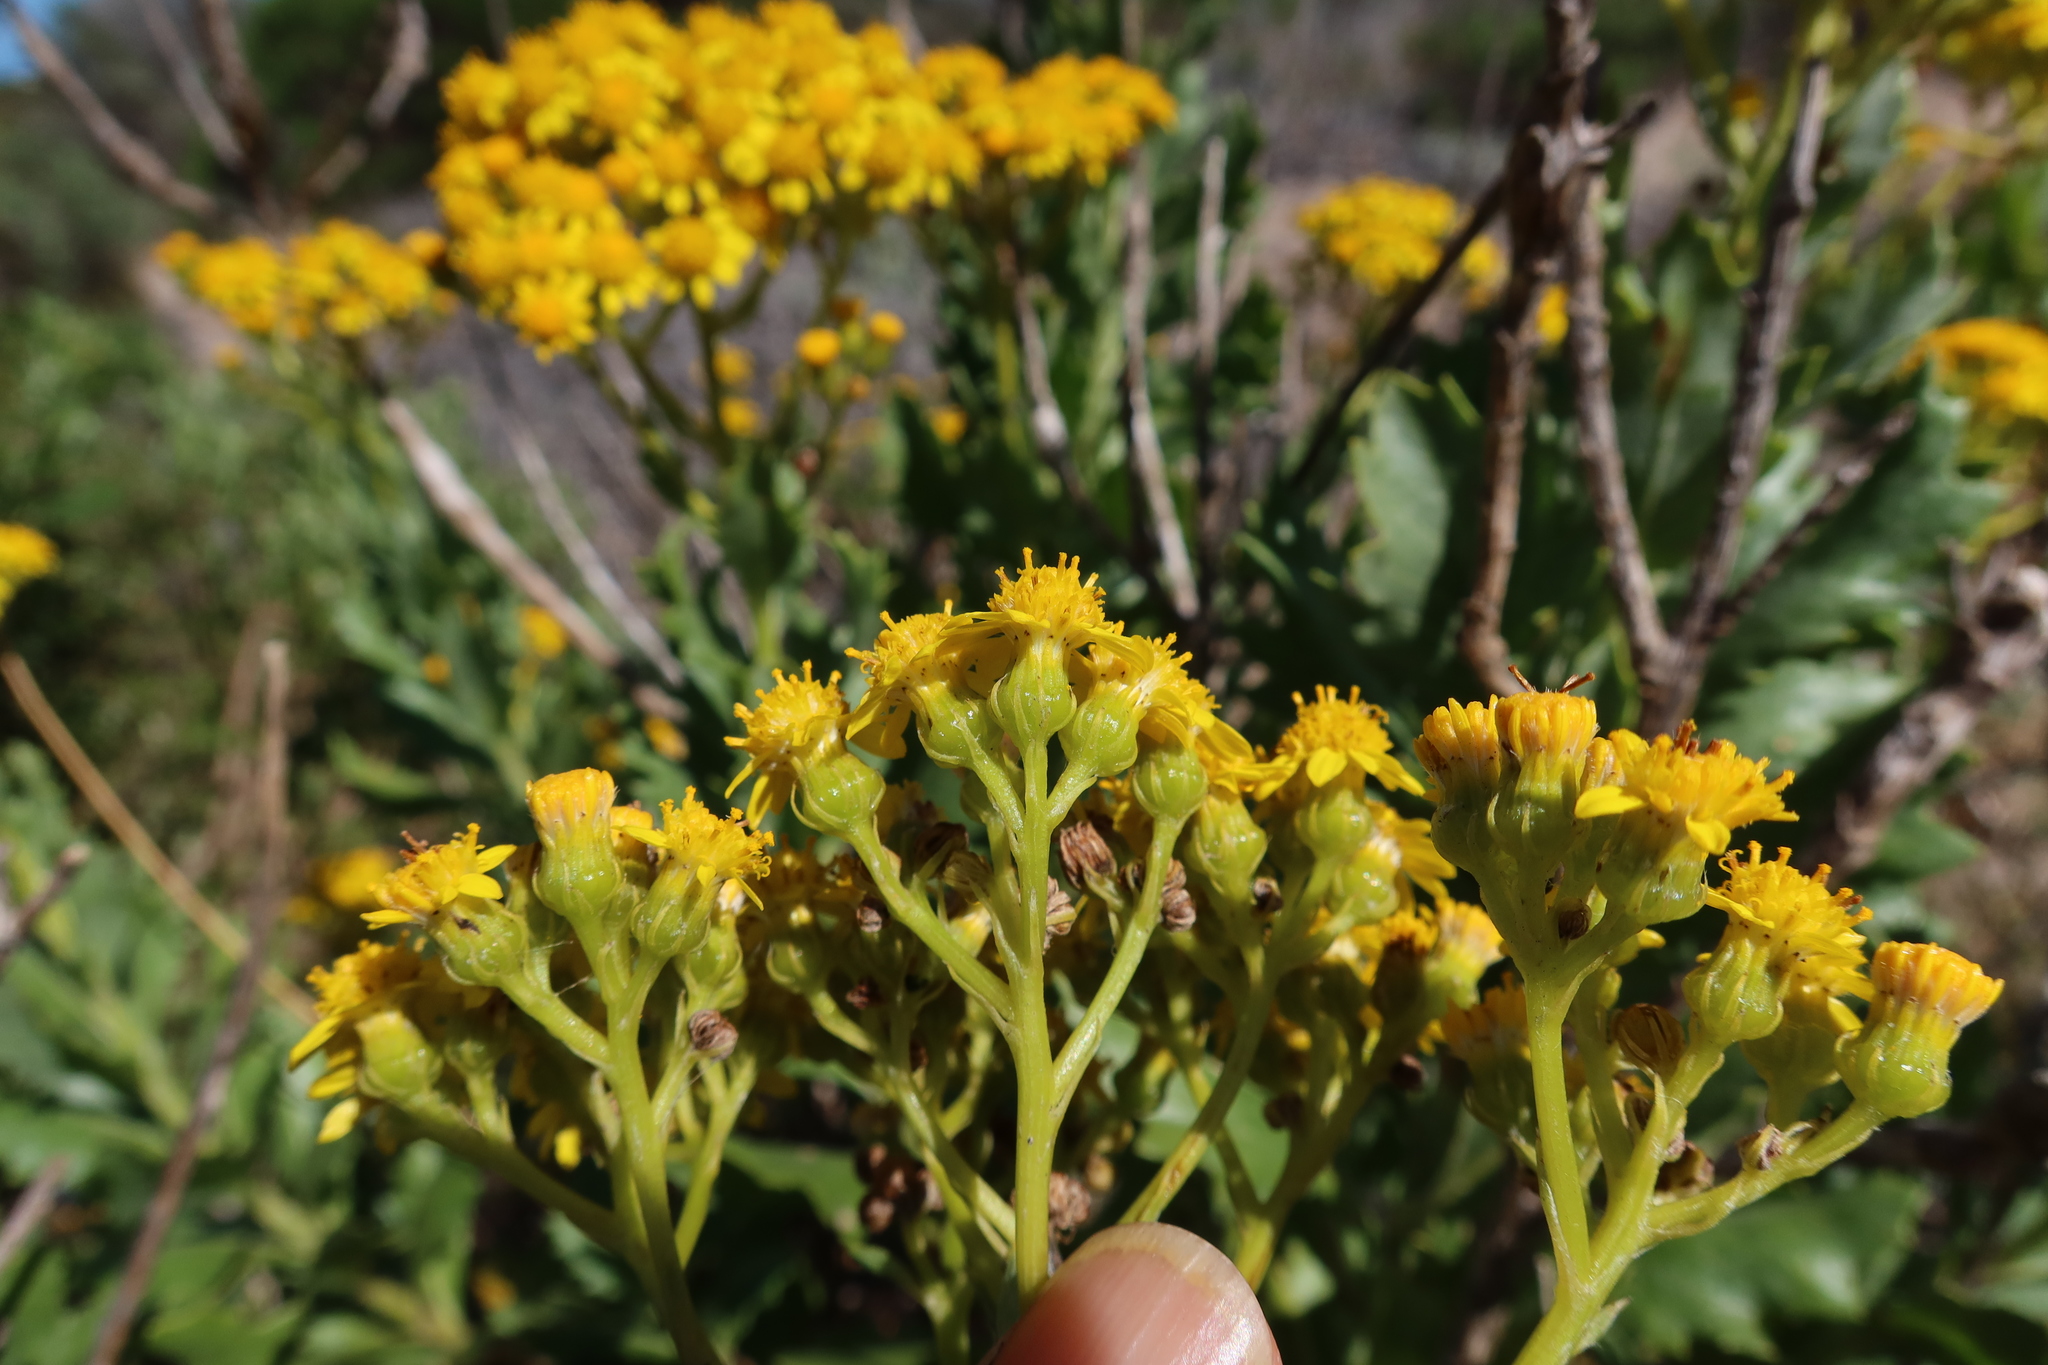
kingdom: Plantae
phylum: Tracheophyta
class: Magnoliopsida
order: Asterales
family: Asteraceae
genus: Senecio
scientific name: Senecio halimifolius
